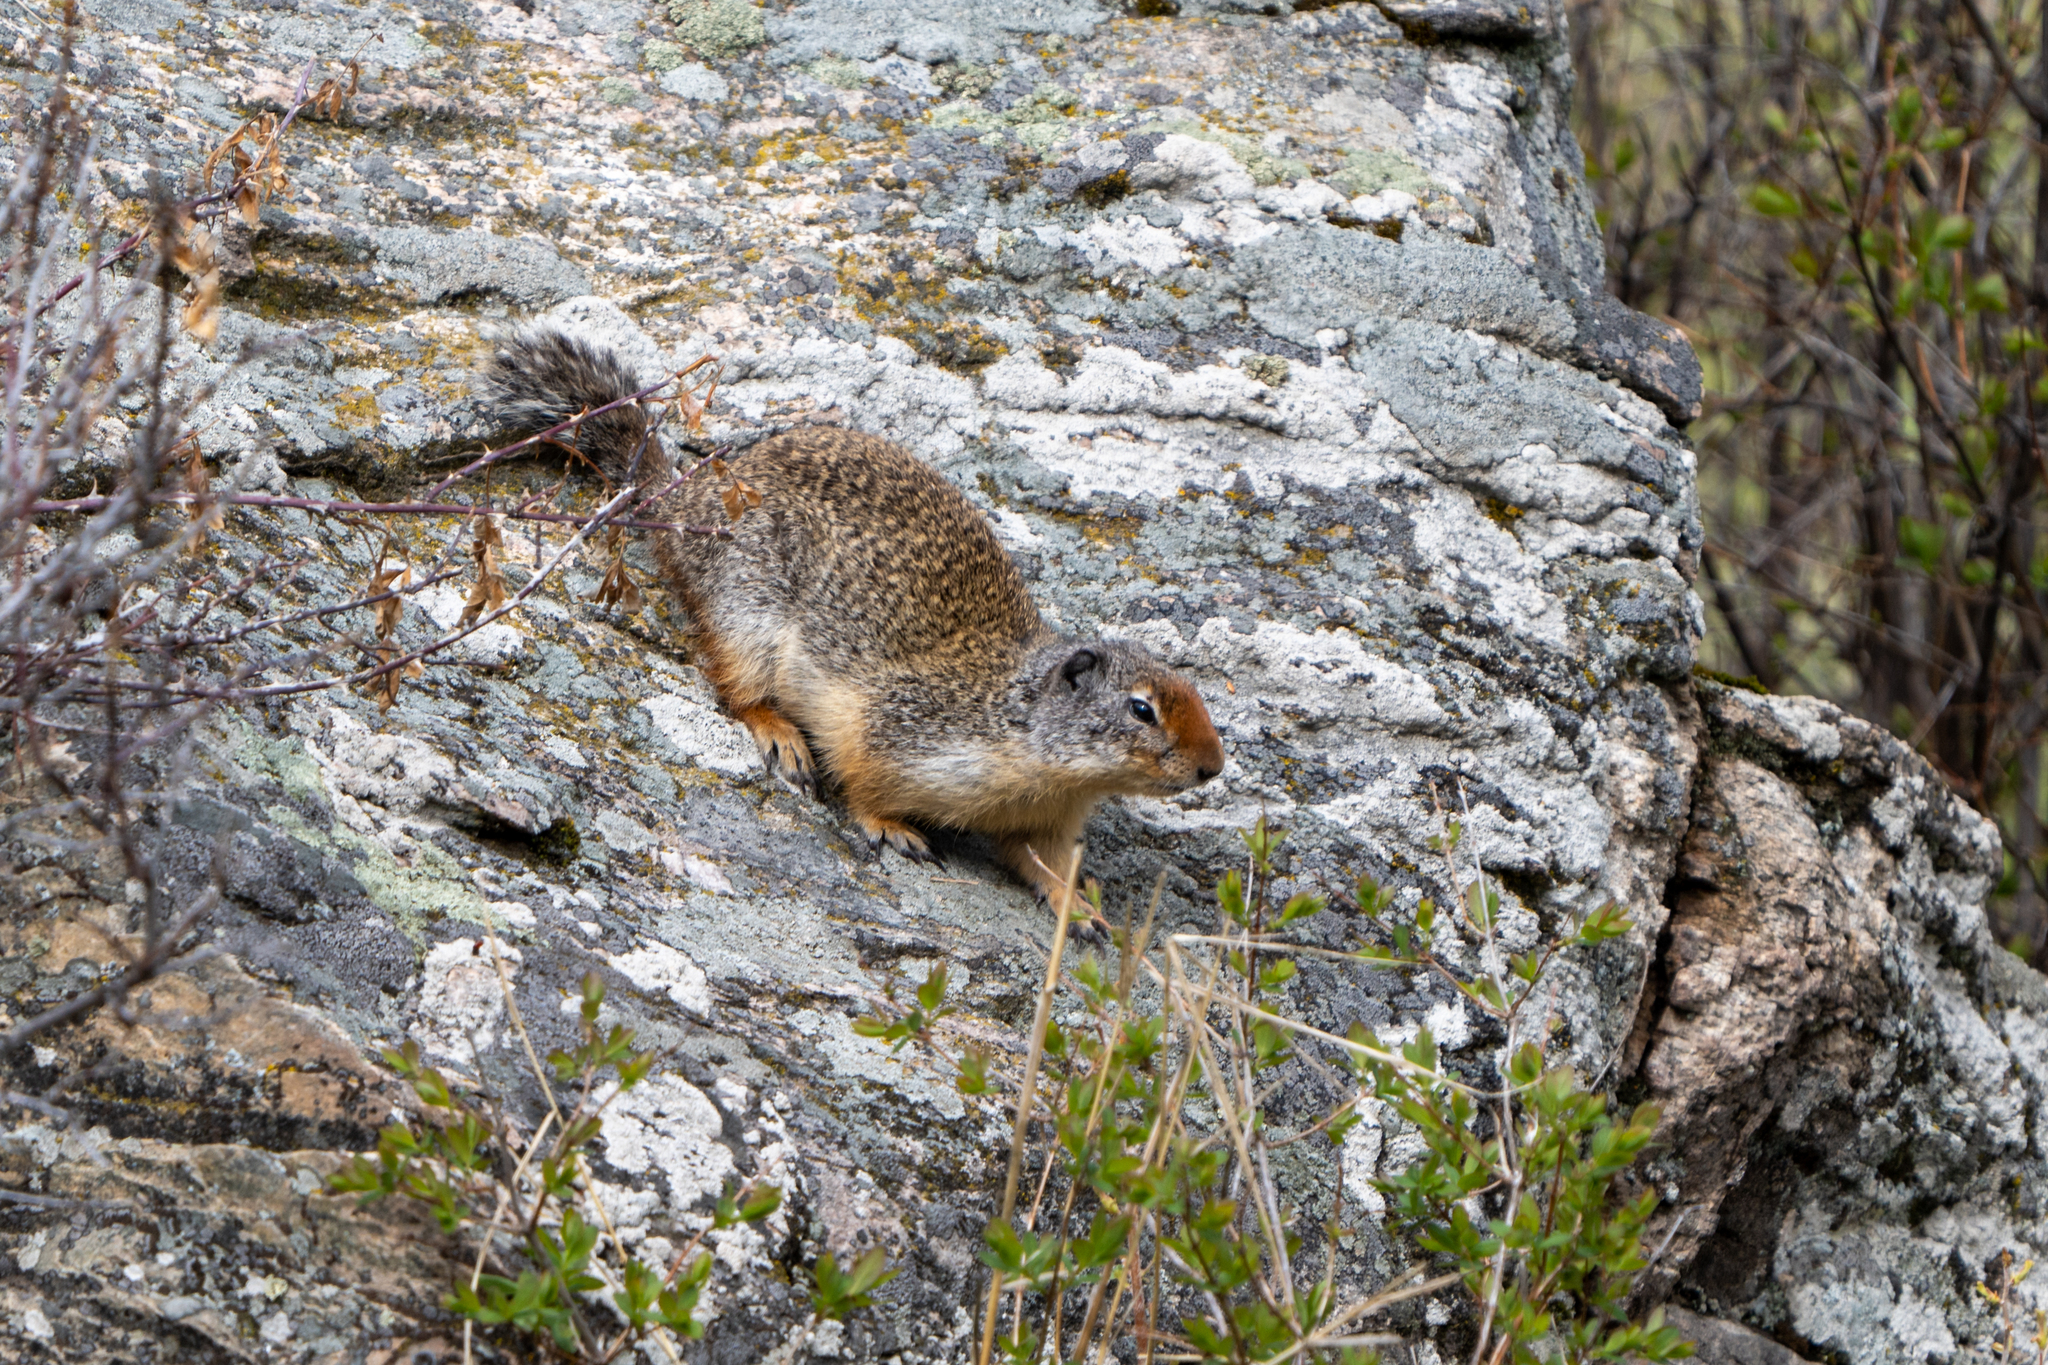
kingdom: Animalia
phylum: Chordata
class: Mammalia
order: Rodentia
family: Sciuridae
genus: Urocitellus
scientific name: Urocitellus columbianus
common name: Columbian ground squirrel
